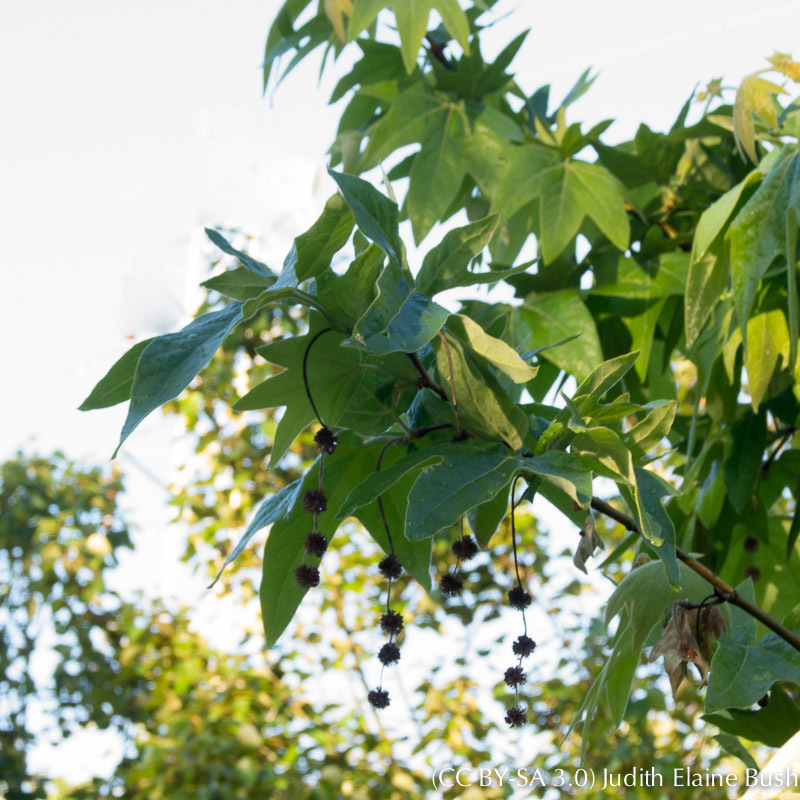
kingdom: Plantae
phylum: Tracheophyta
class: Magnoliopsida
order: Proteales
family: Platanaceae
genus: Platanus
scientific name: Platanus racemosa
